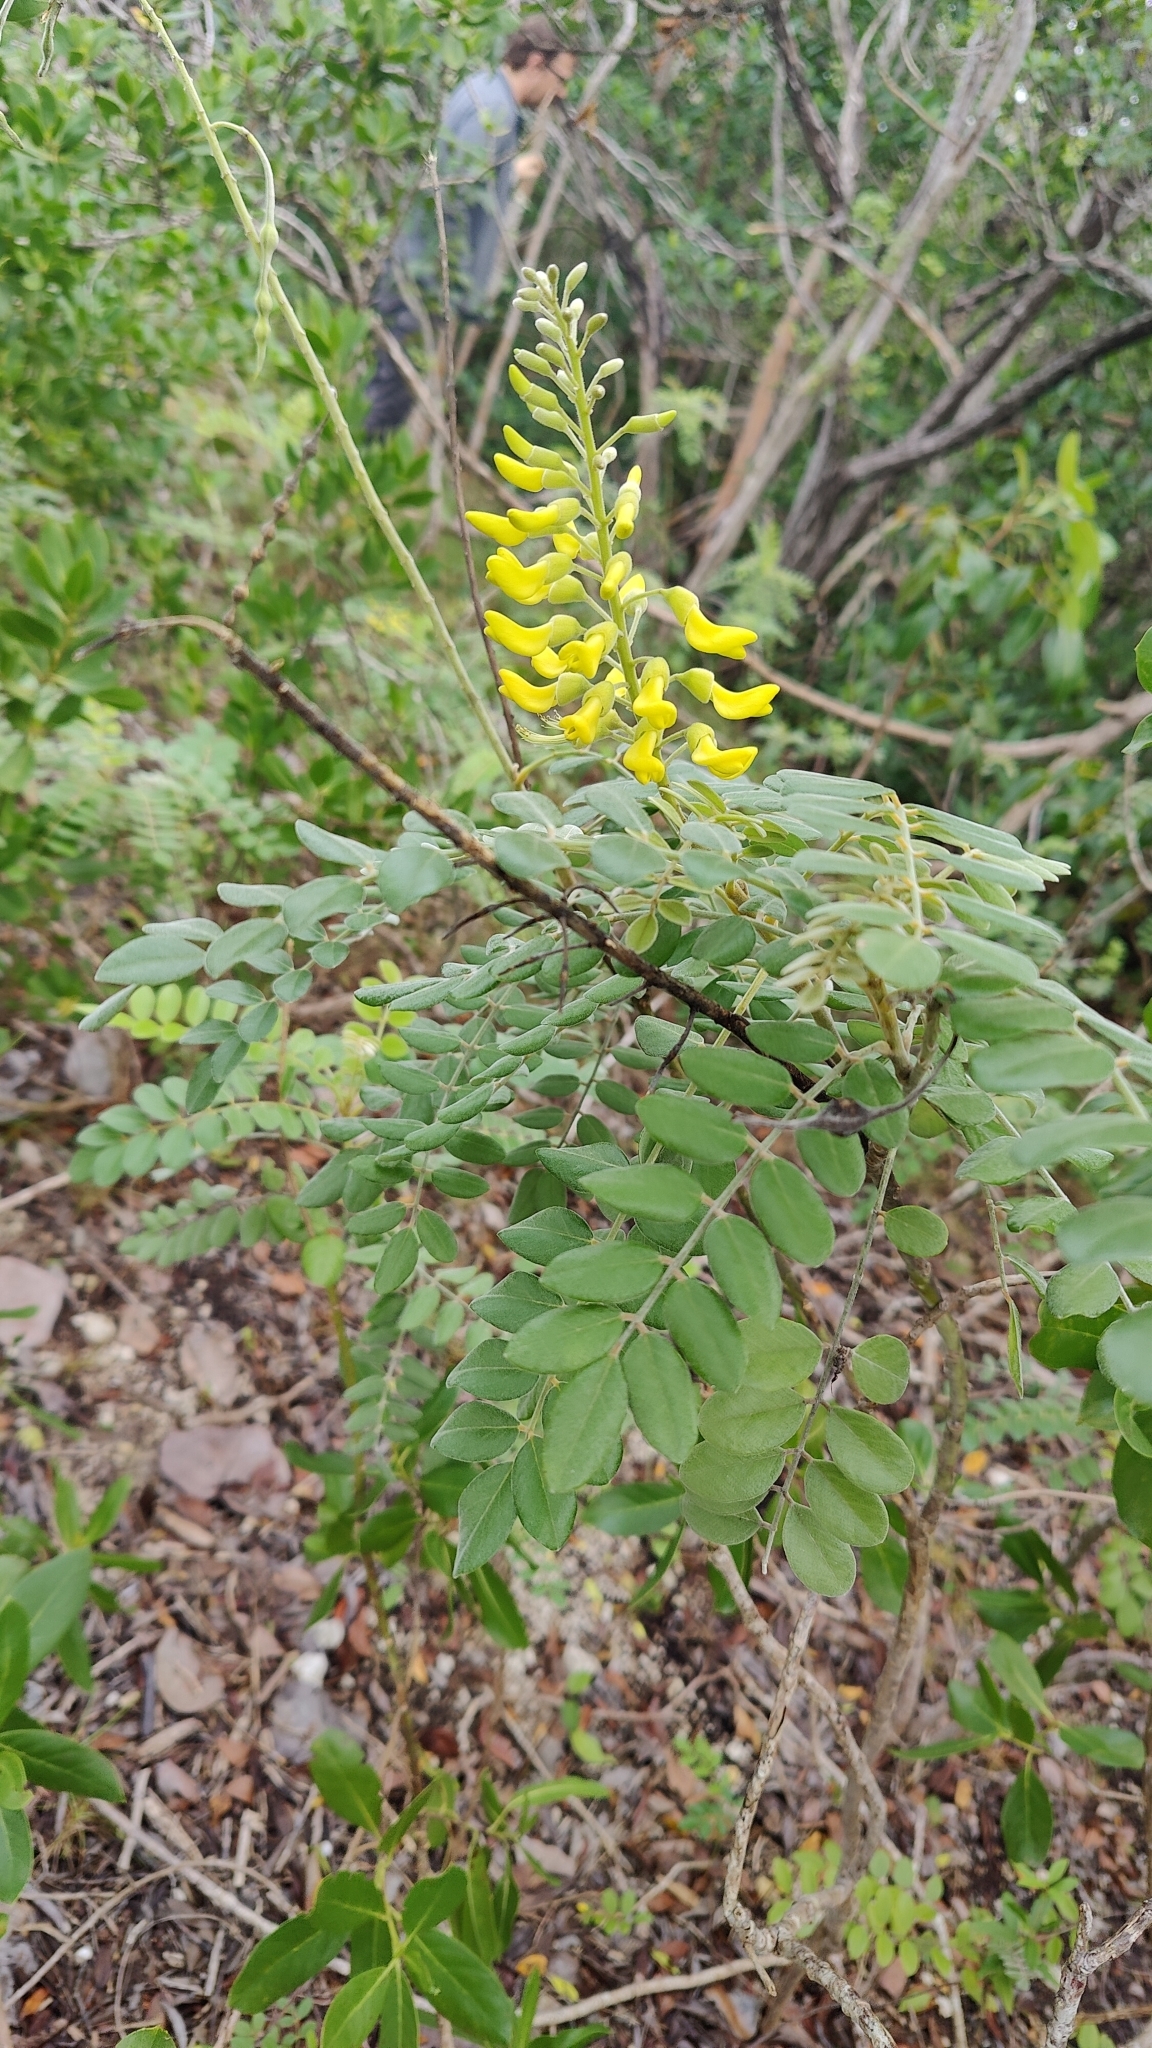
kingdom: Plantae
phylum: Tracheophyta
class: Magnoliopsida
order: Fabales
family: Fabaceae
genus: Sophora
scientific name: Sophora tomentosa
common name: Yellow necklacepod
